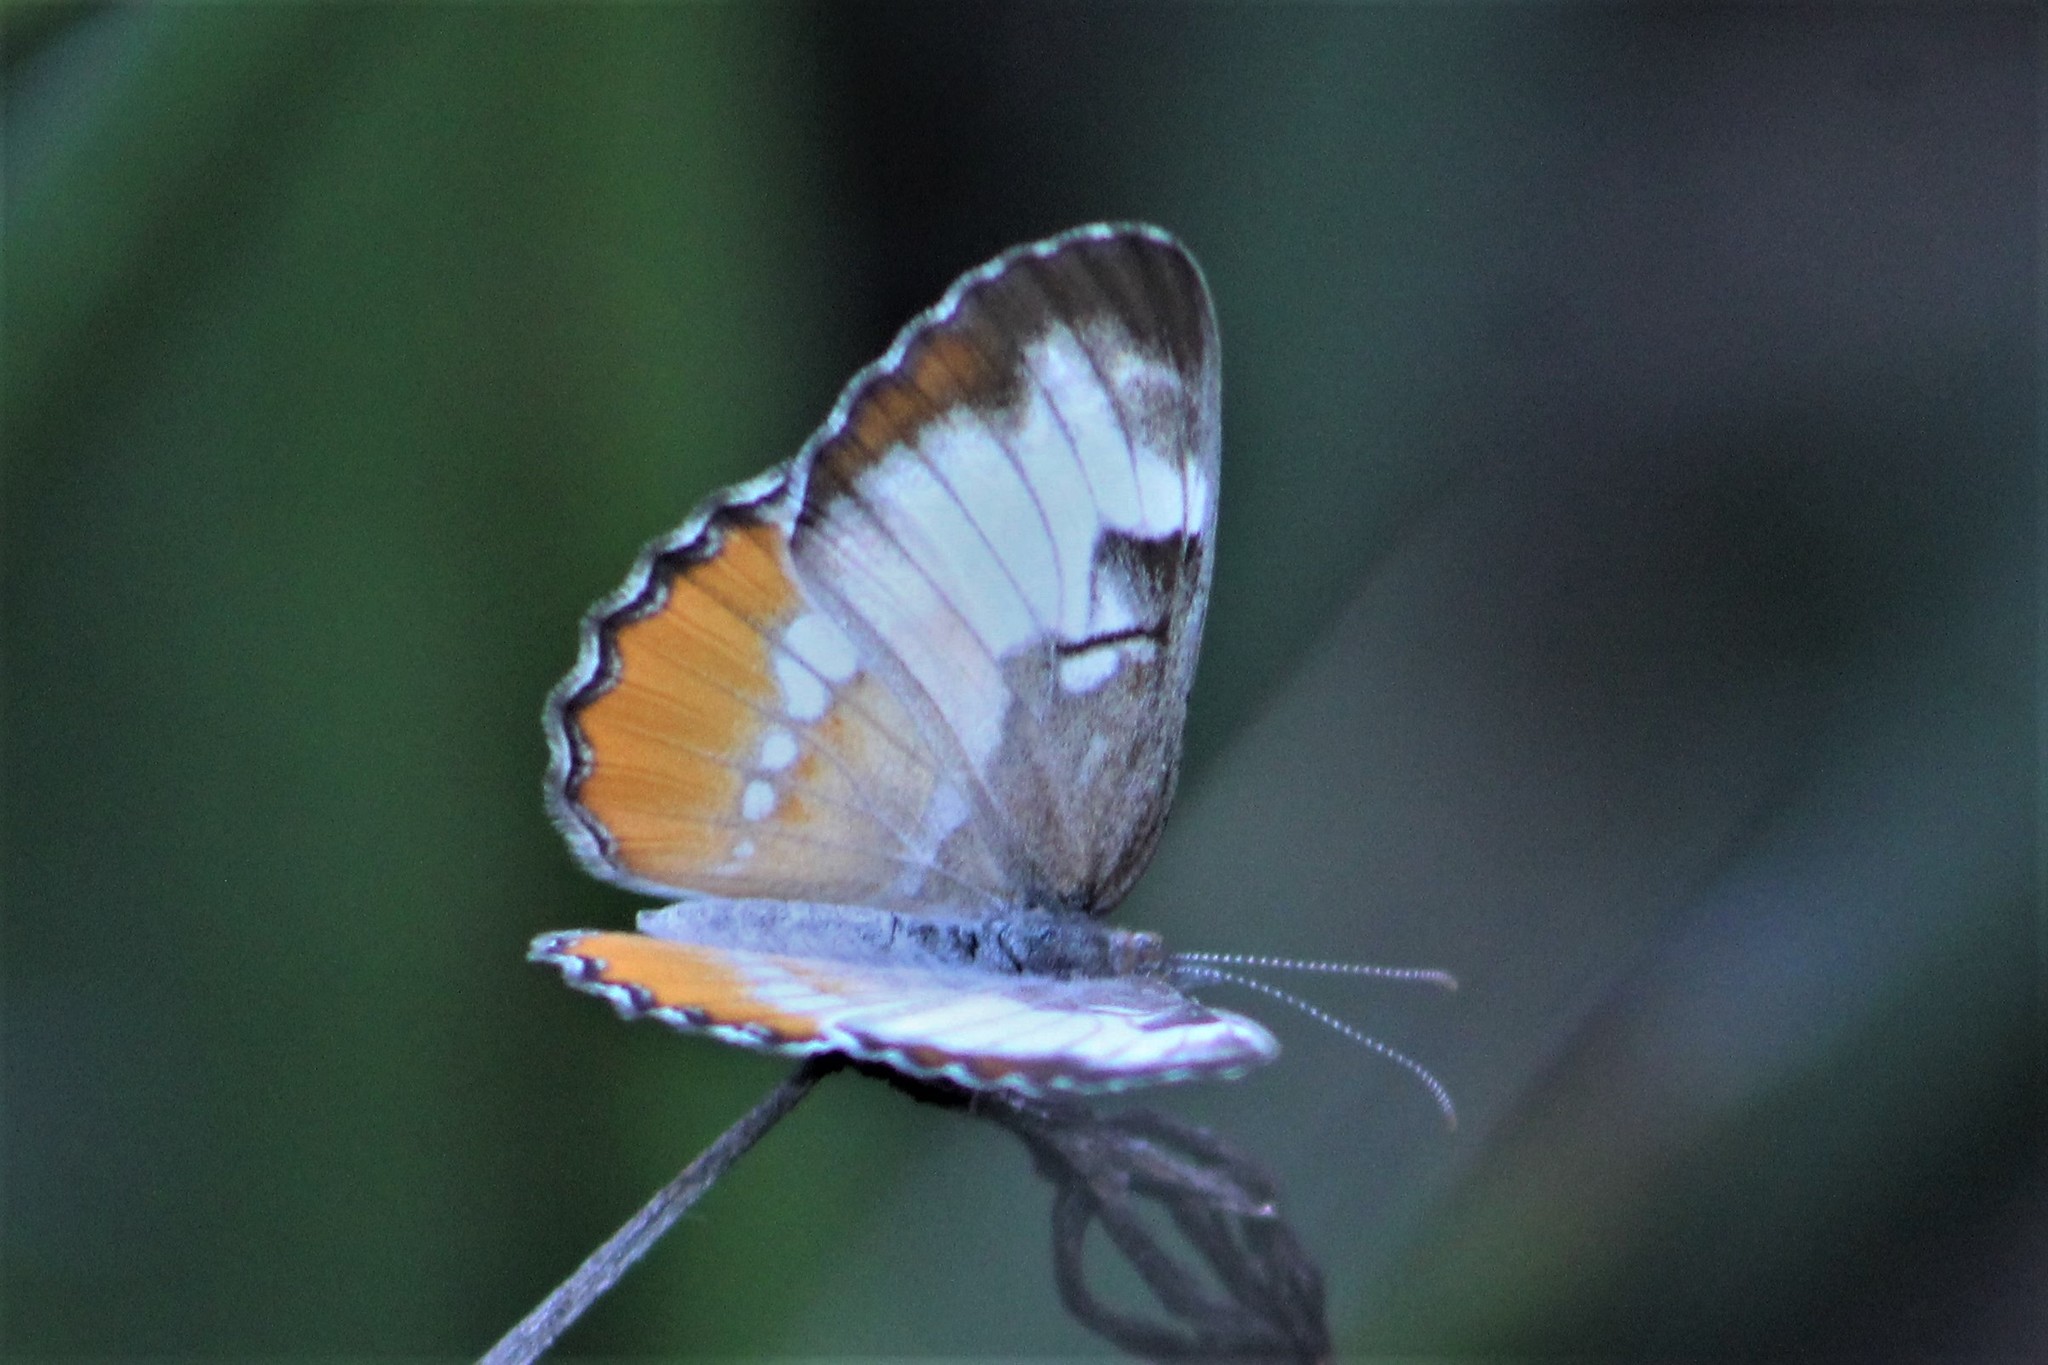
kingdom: Animalia
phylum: Arthropoda
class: Insecta
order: Lepidoptera
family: Nymphalidae
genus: Mestra
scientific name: Mestra amymone
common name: Common mestra
